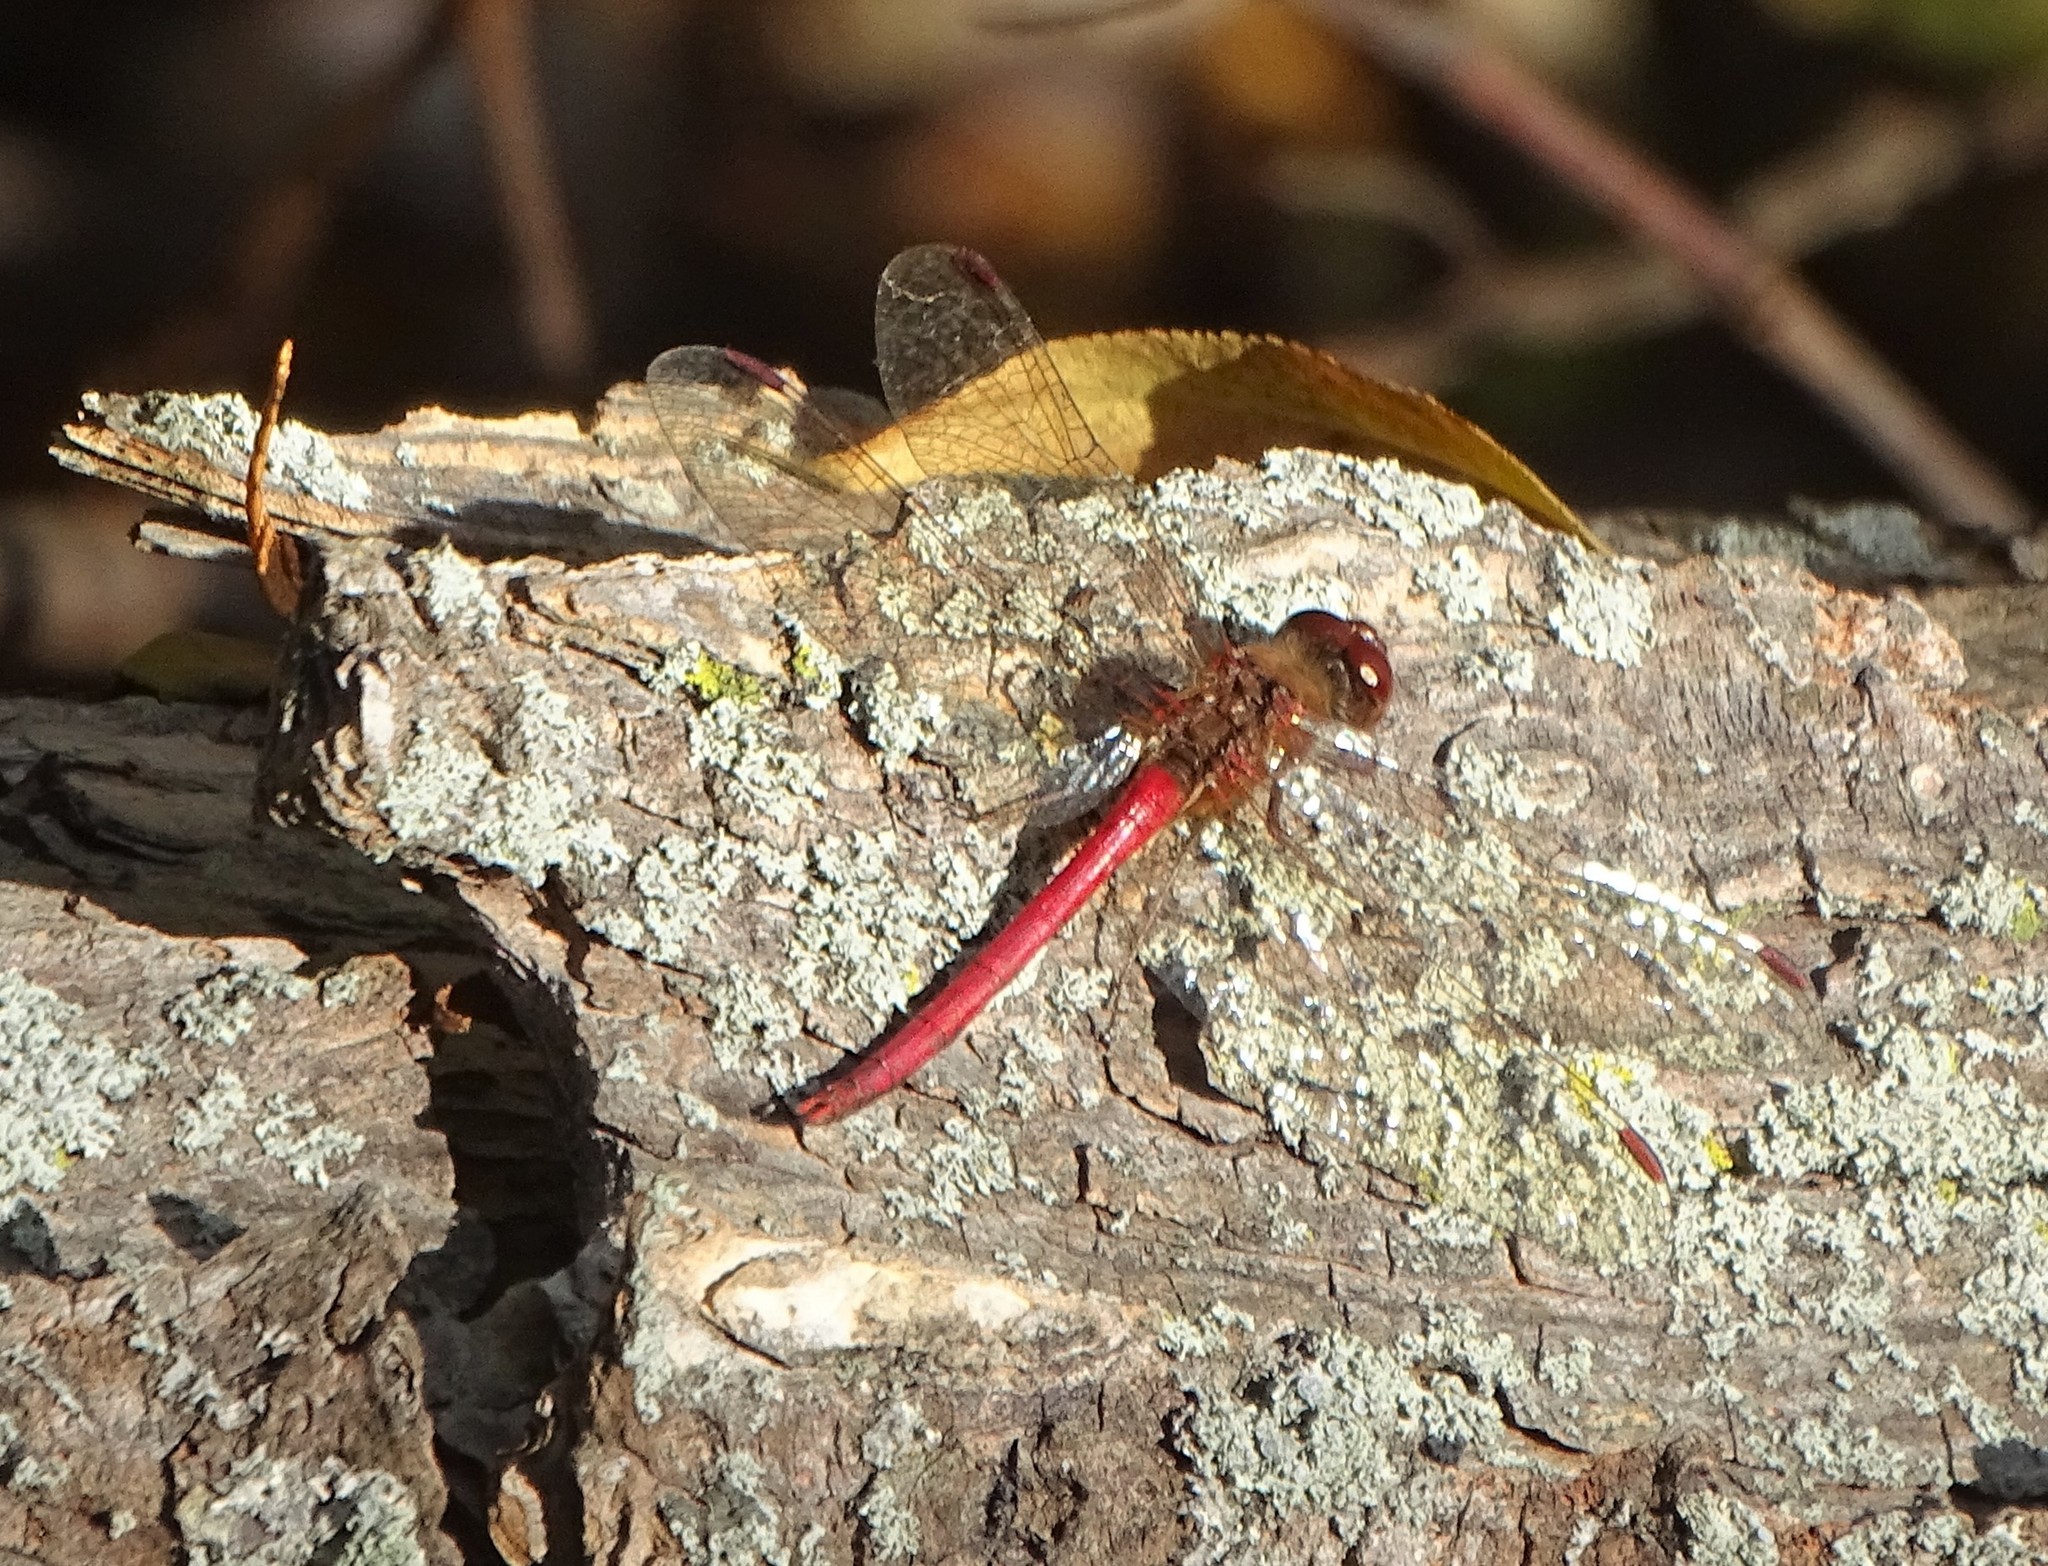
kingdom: Animalia
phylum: Arthropoda
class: Insecta
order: Odonata
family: Libellulidae
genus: Sympetrum
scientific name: Sympetrum vicinum
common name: Autumn meadowhawk
